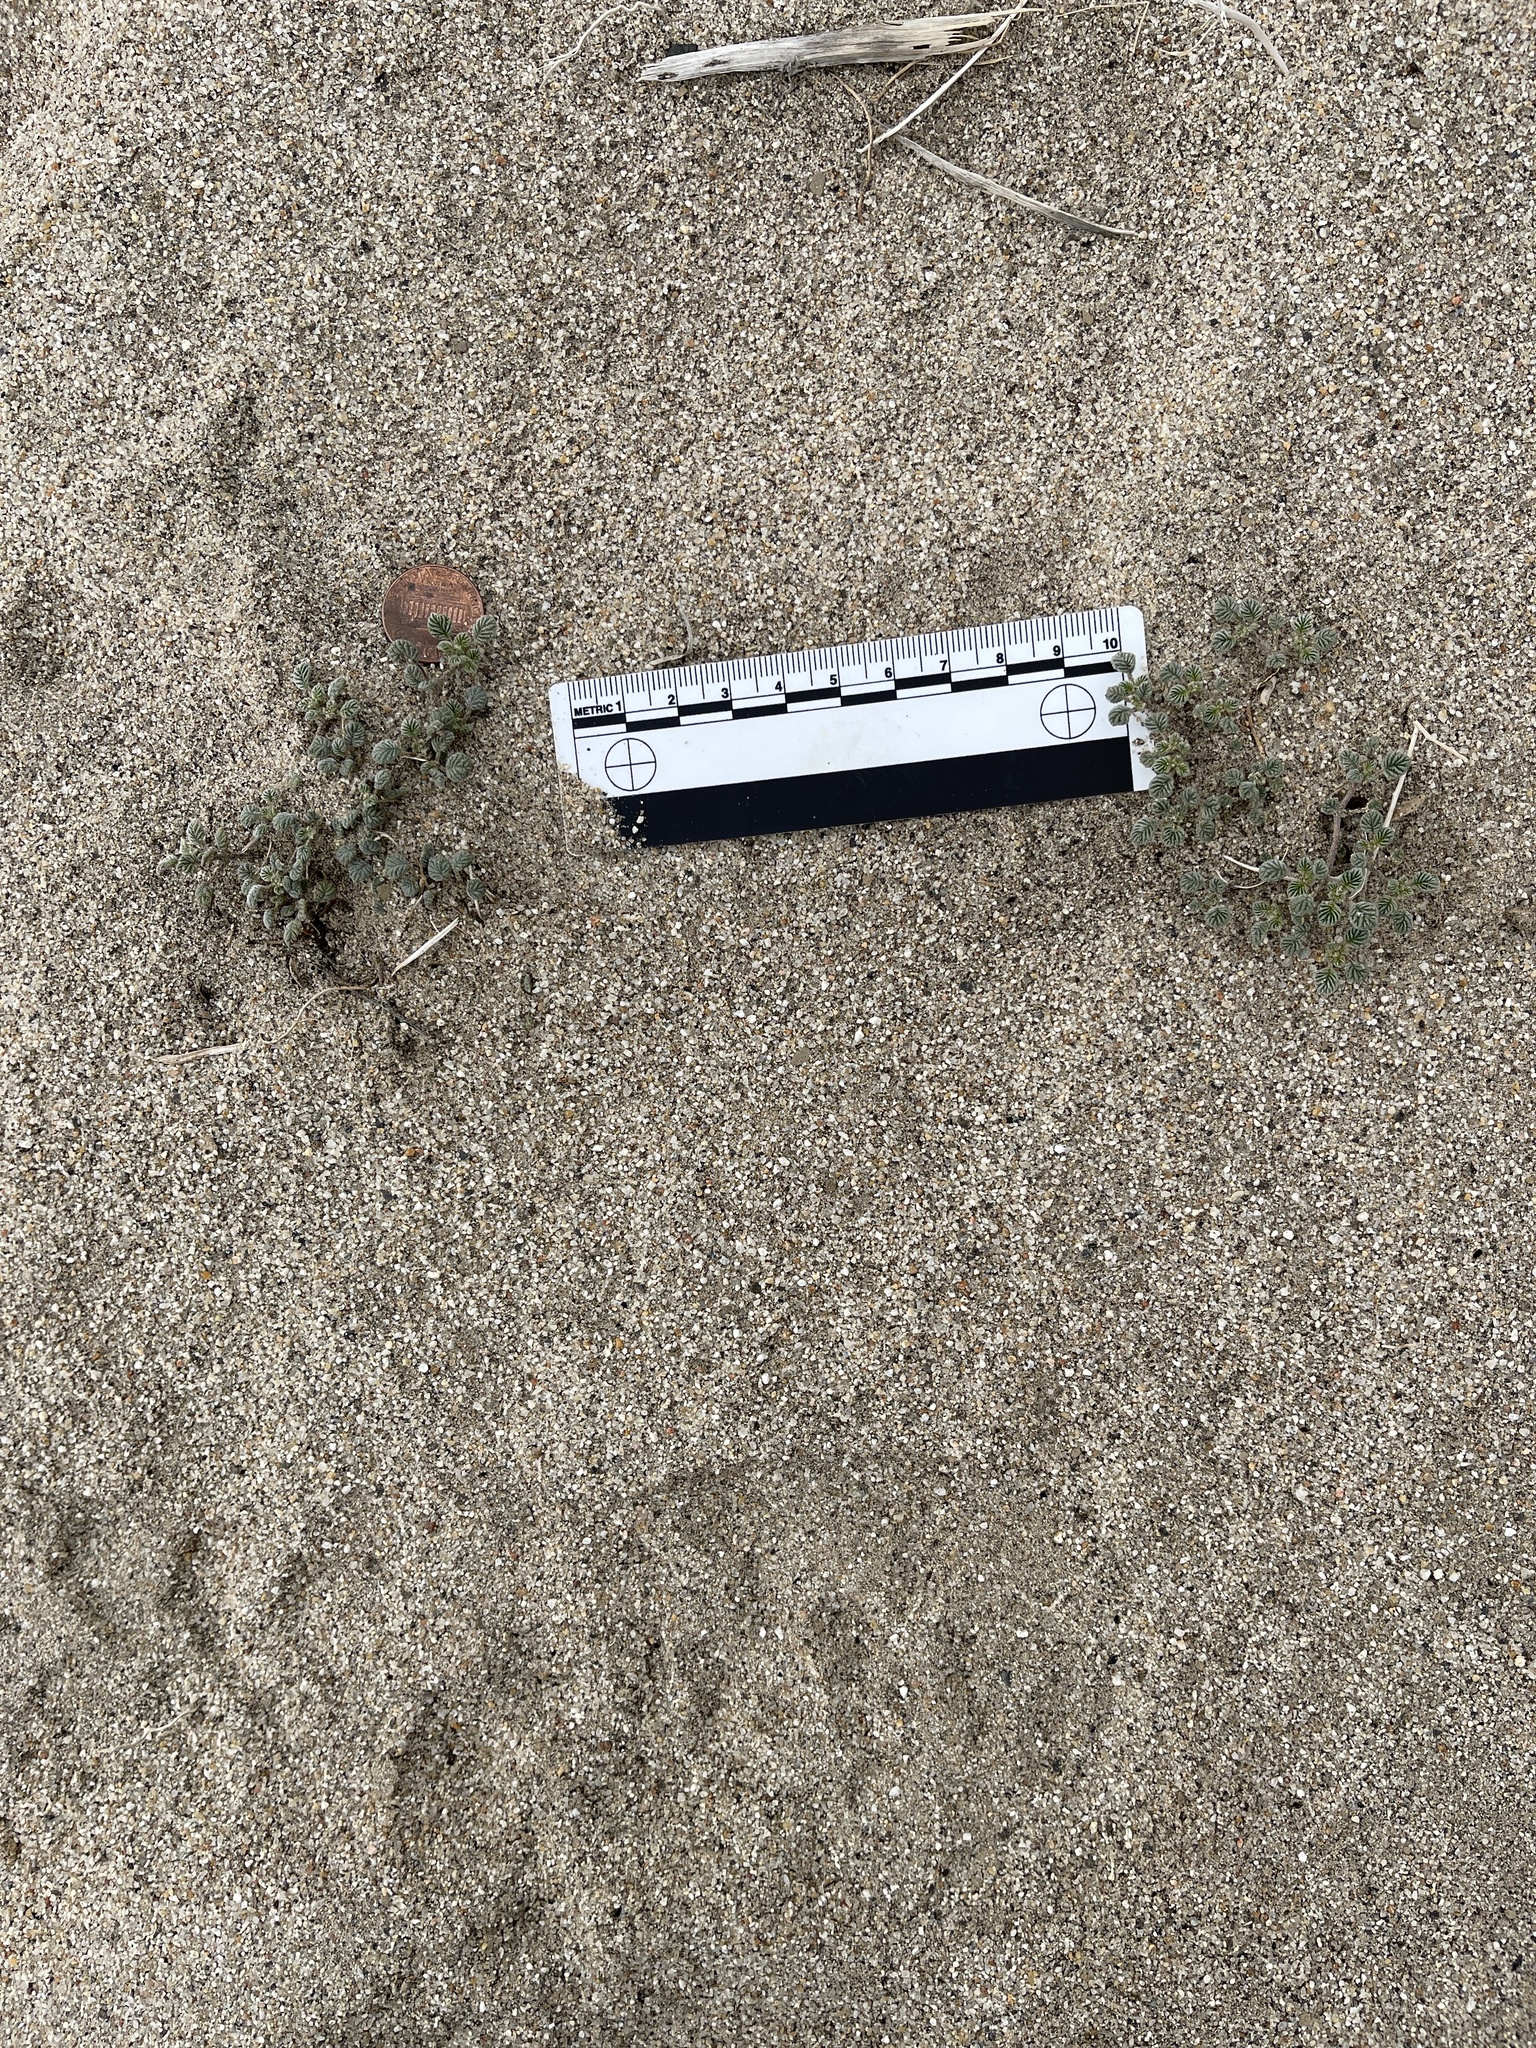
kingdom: Plantae
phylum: Tracheophyta
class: Magnoliopsida
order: Boraginales
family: Ehretiaceae
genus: Tiquilia
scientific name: Tiquilia plicata
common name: Fan-leaf tiquilia
